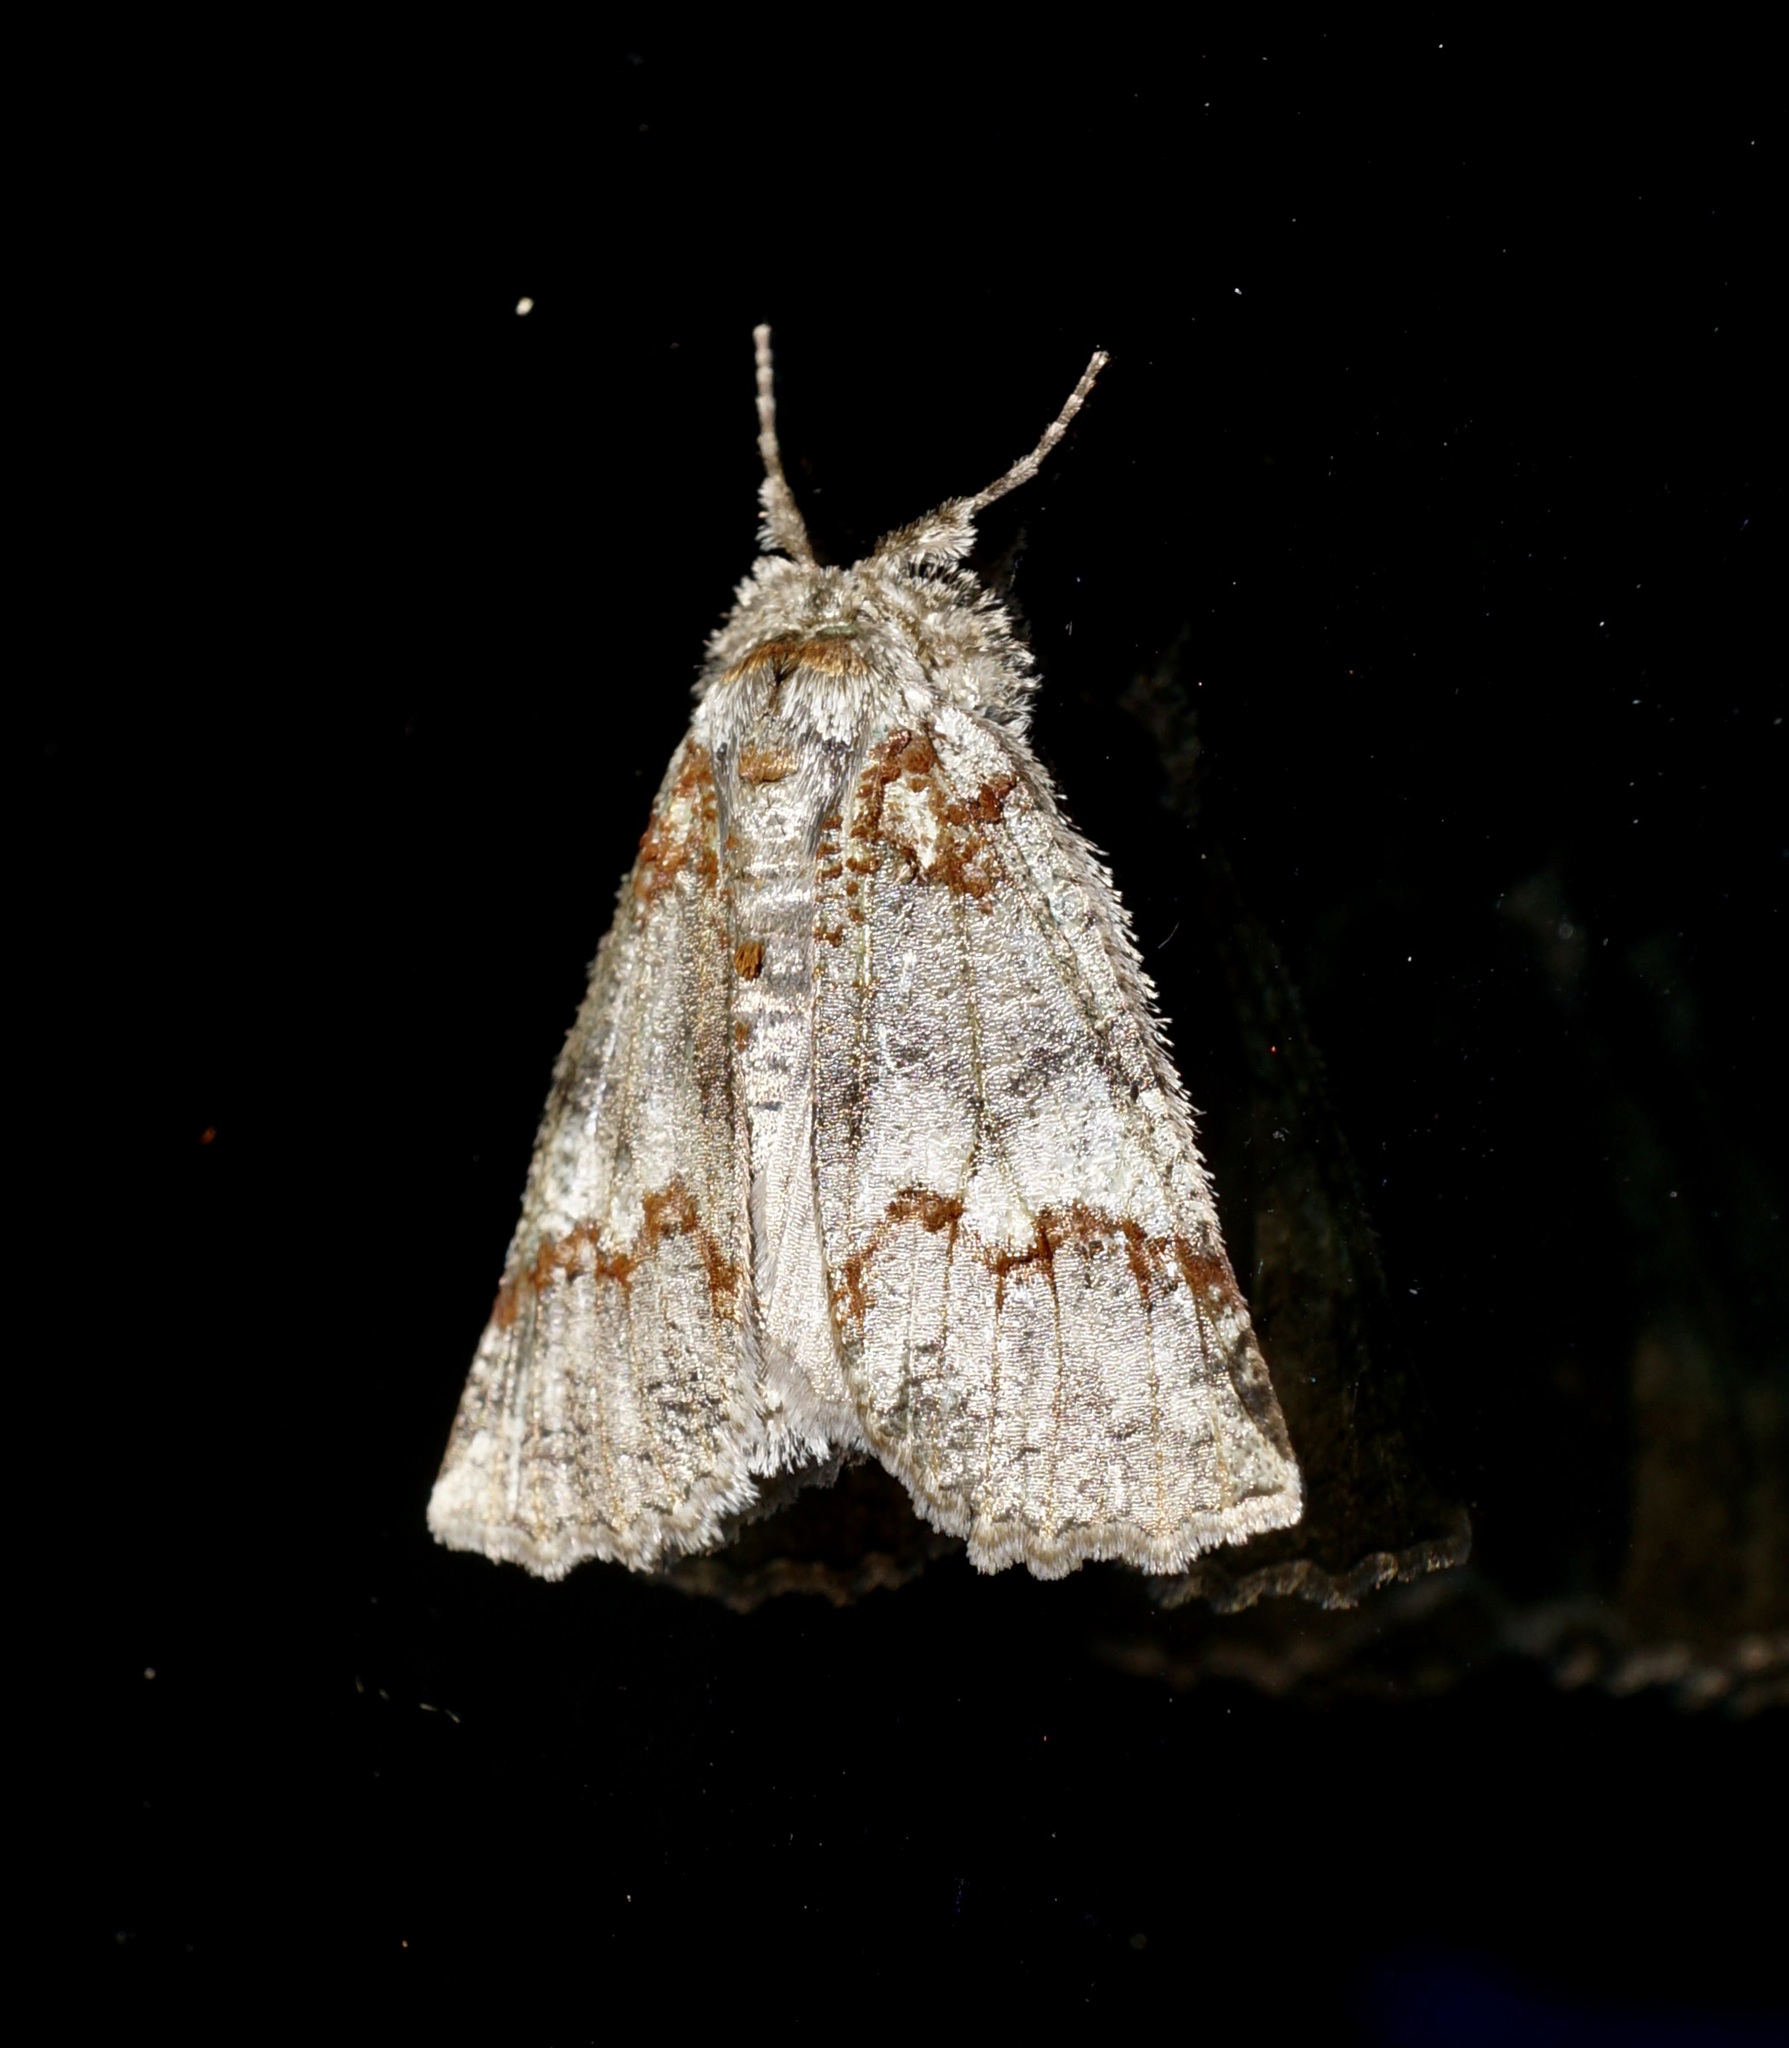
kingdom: Animalia
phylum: Arthropoda
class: Insecta
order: Lepidoptera
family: Geometridae
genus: Declana
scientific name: Declana floccosa
